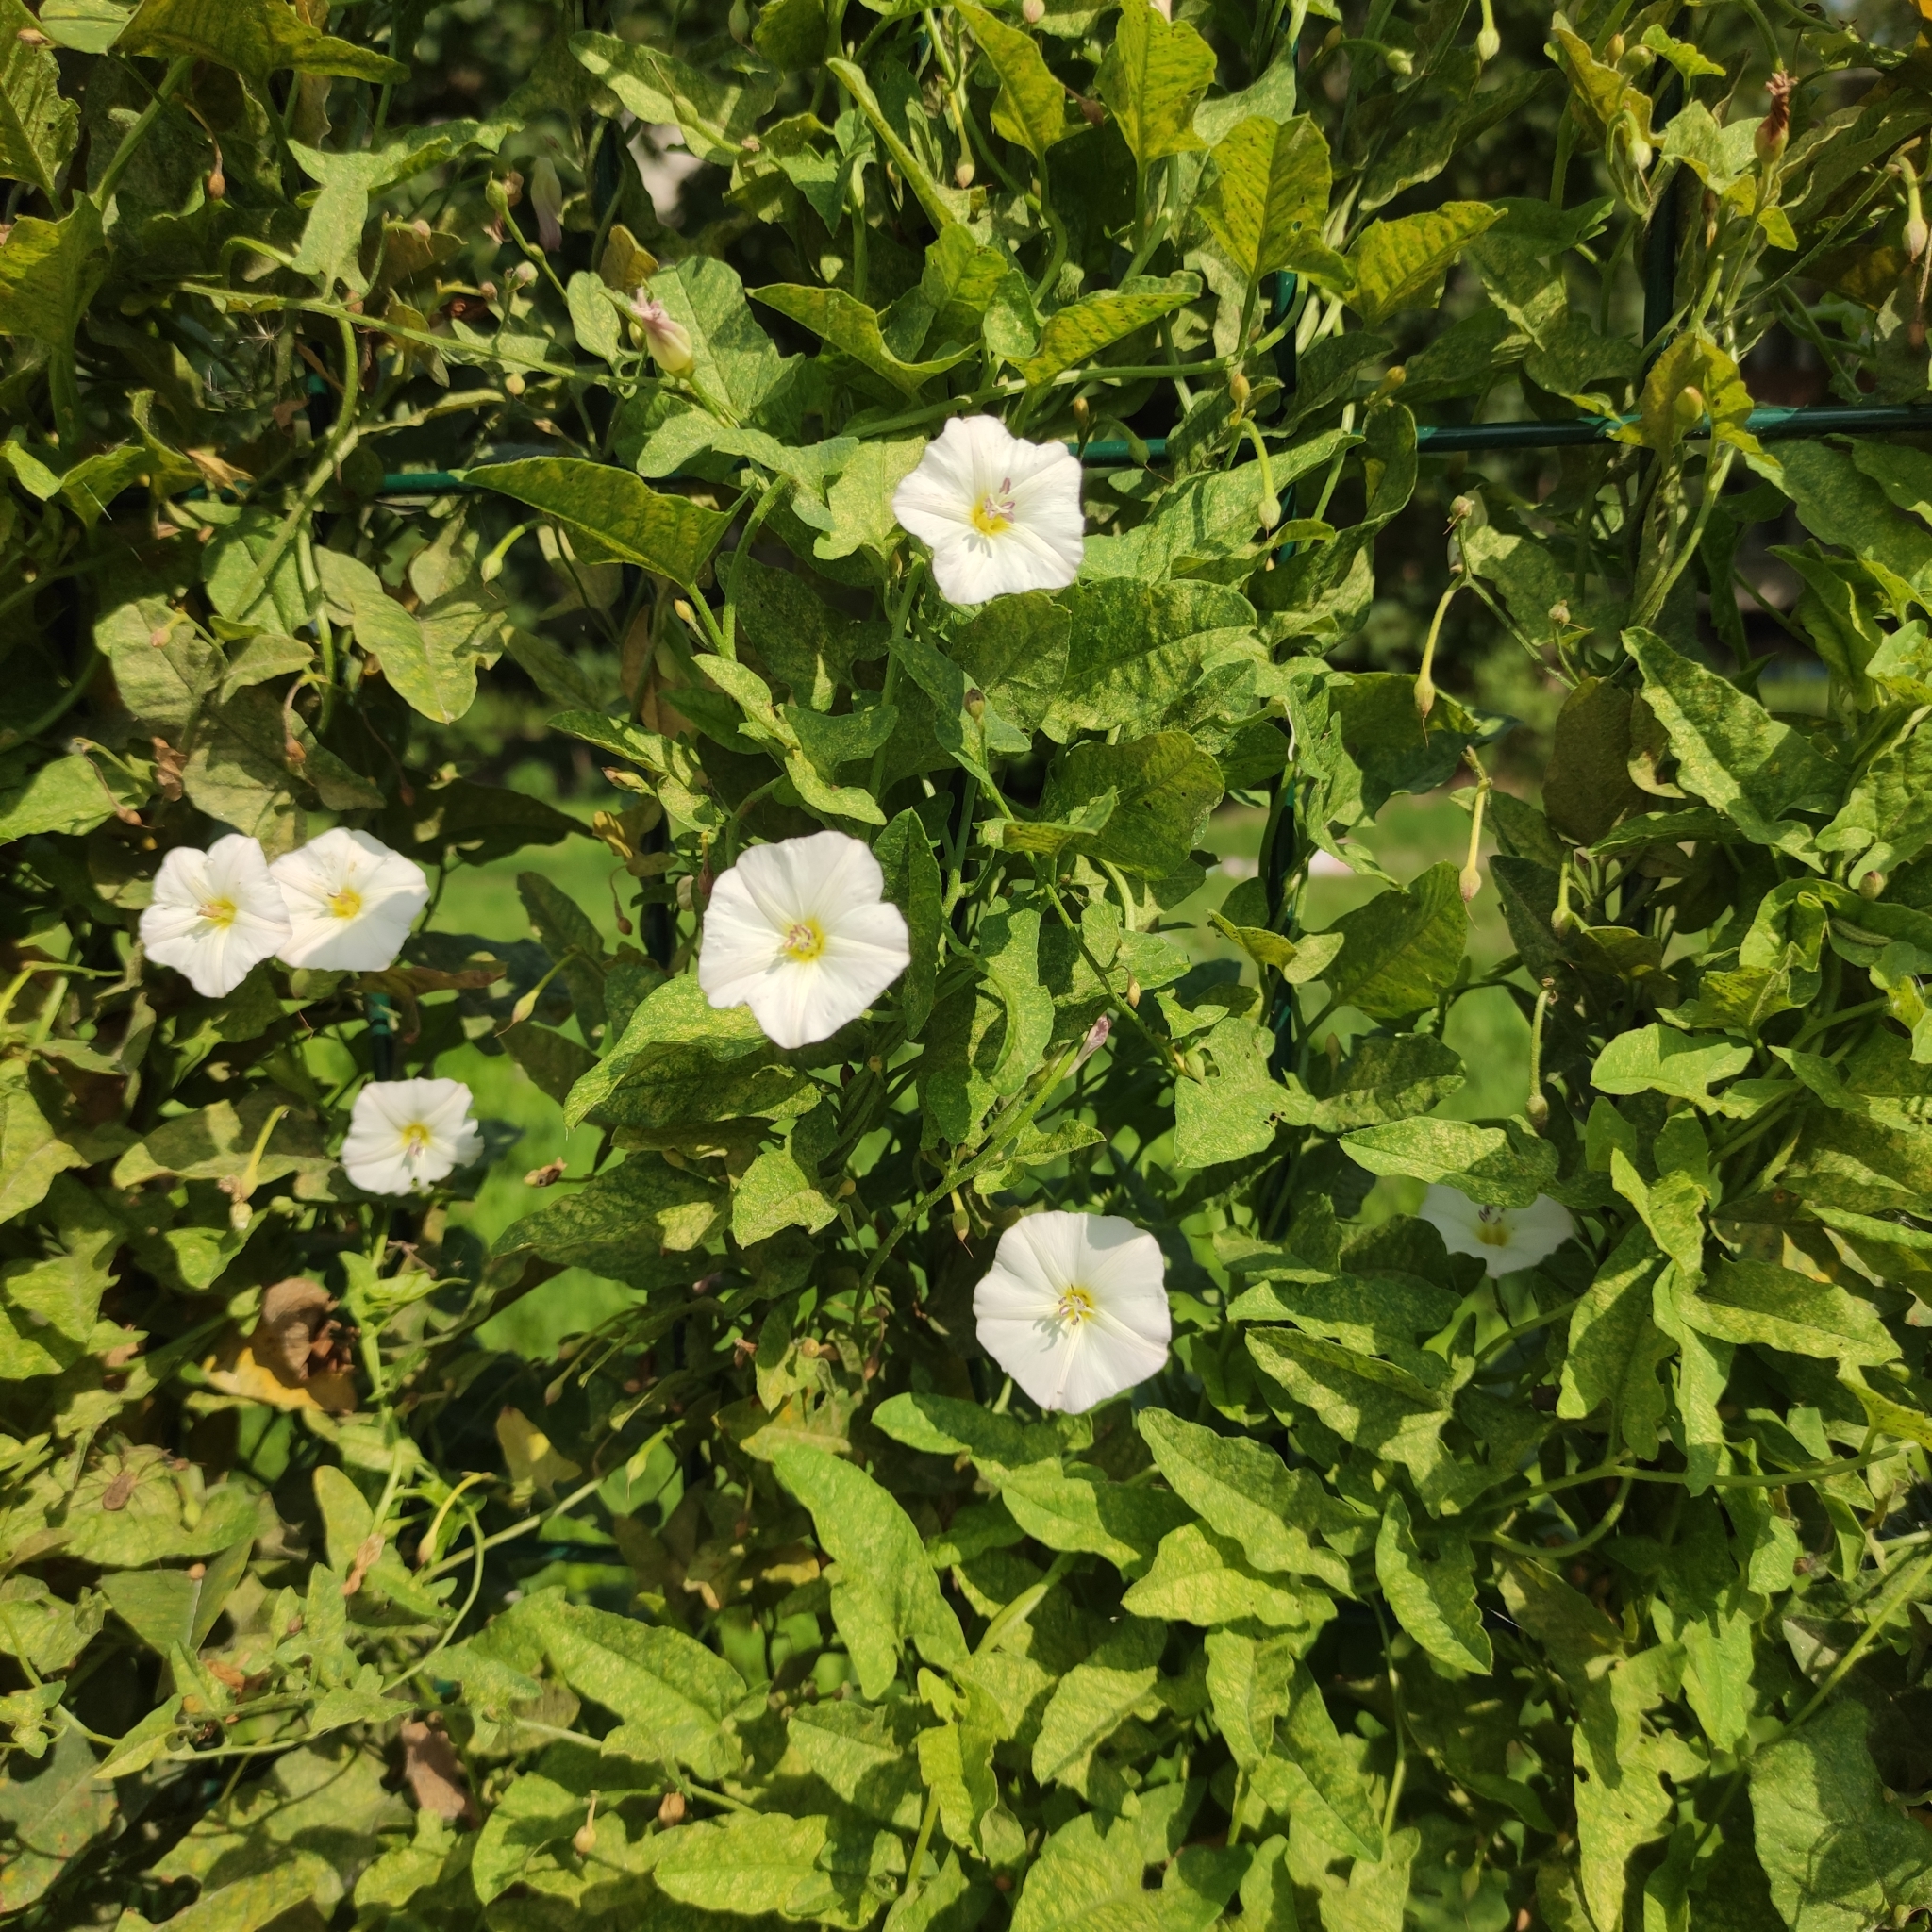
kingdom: Plantae
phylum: Tracheophyta
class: Magnoliopsida
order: Solanales
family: Convolvulaceae
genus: Convolvulus
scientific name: Convolvulus arvensis
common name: Field bindweed
